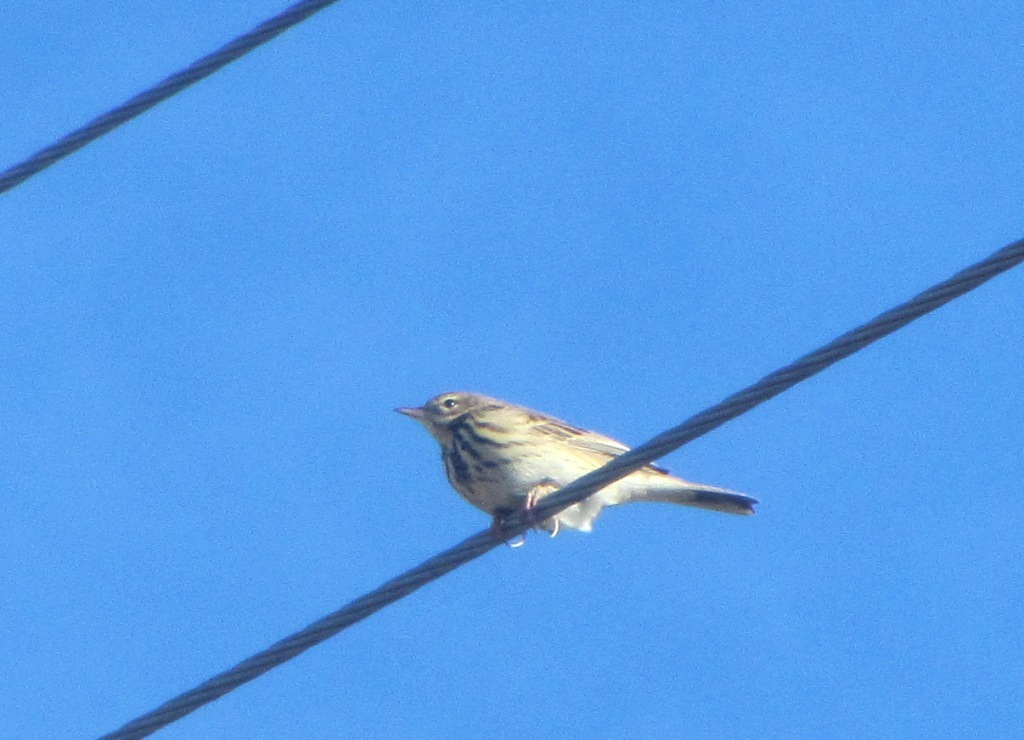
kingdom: Animalia
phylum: Chordata
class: Aves
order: Passeriformes
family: Motacillidae
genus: Anthus
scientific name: Anthus trivialis
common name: Tree pipit
